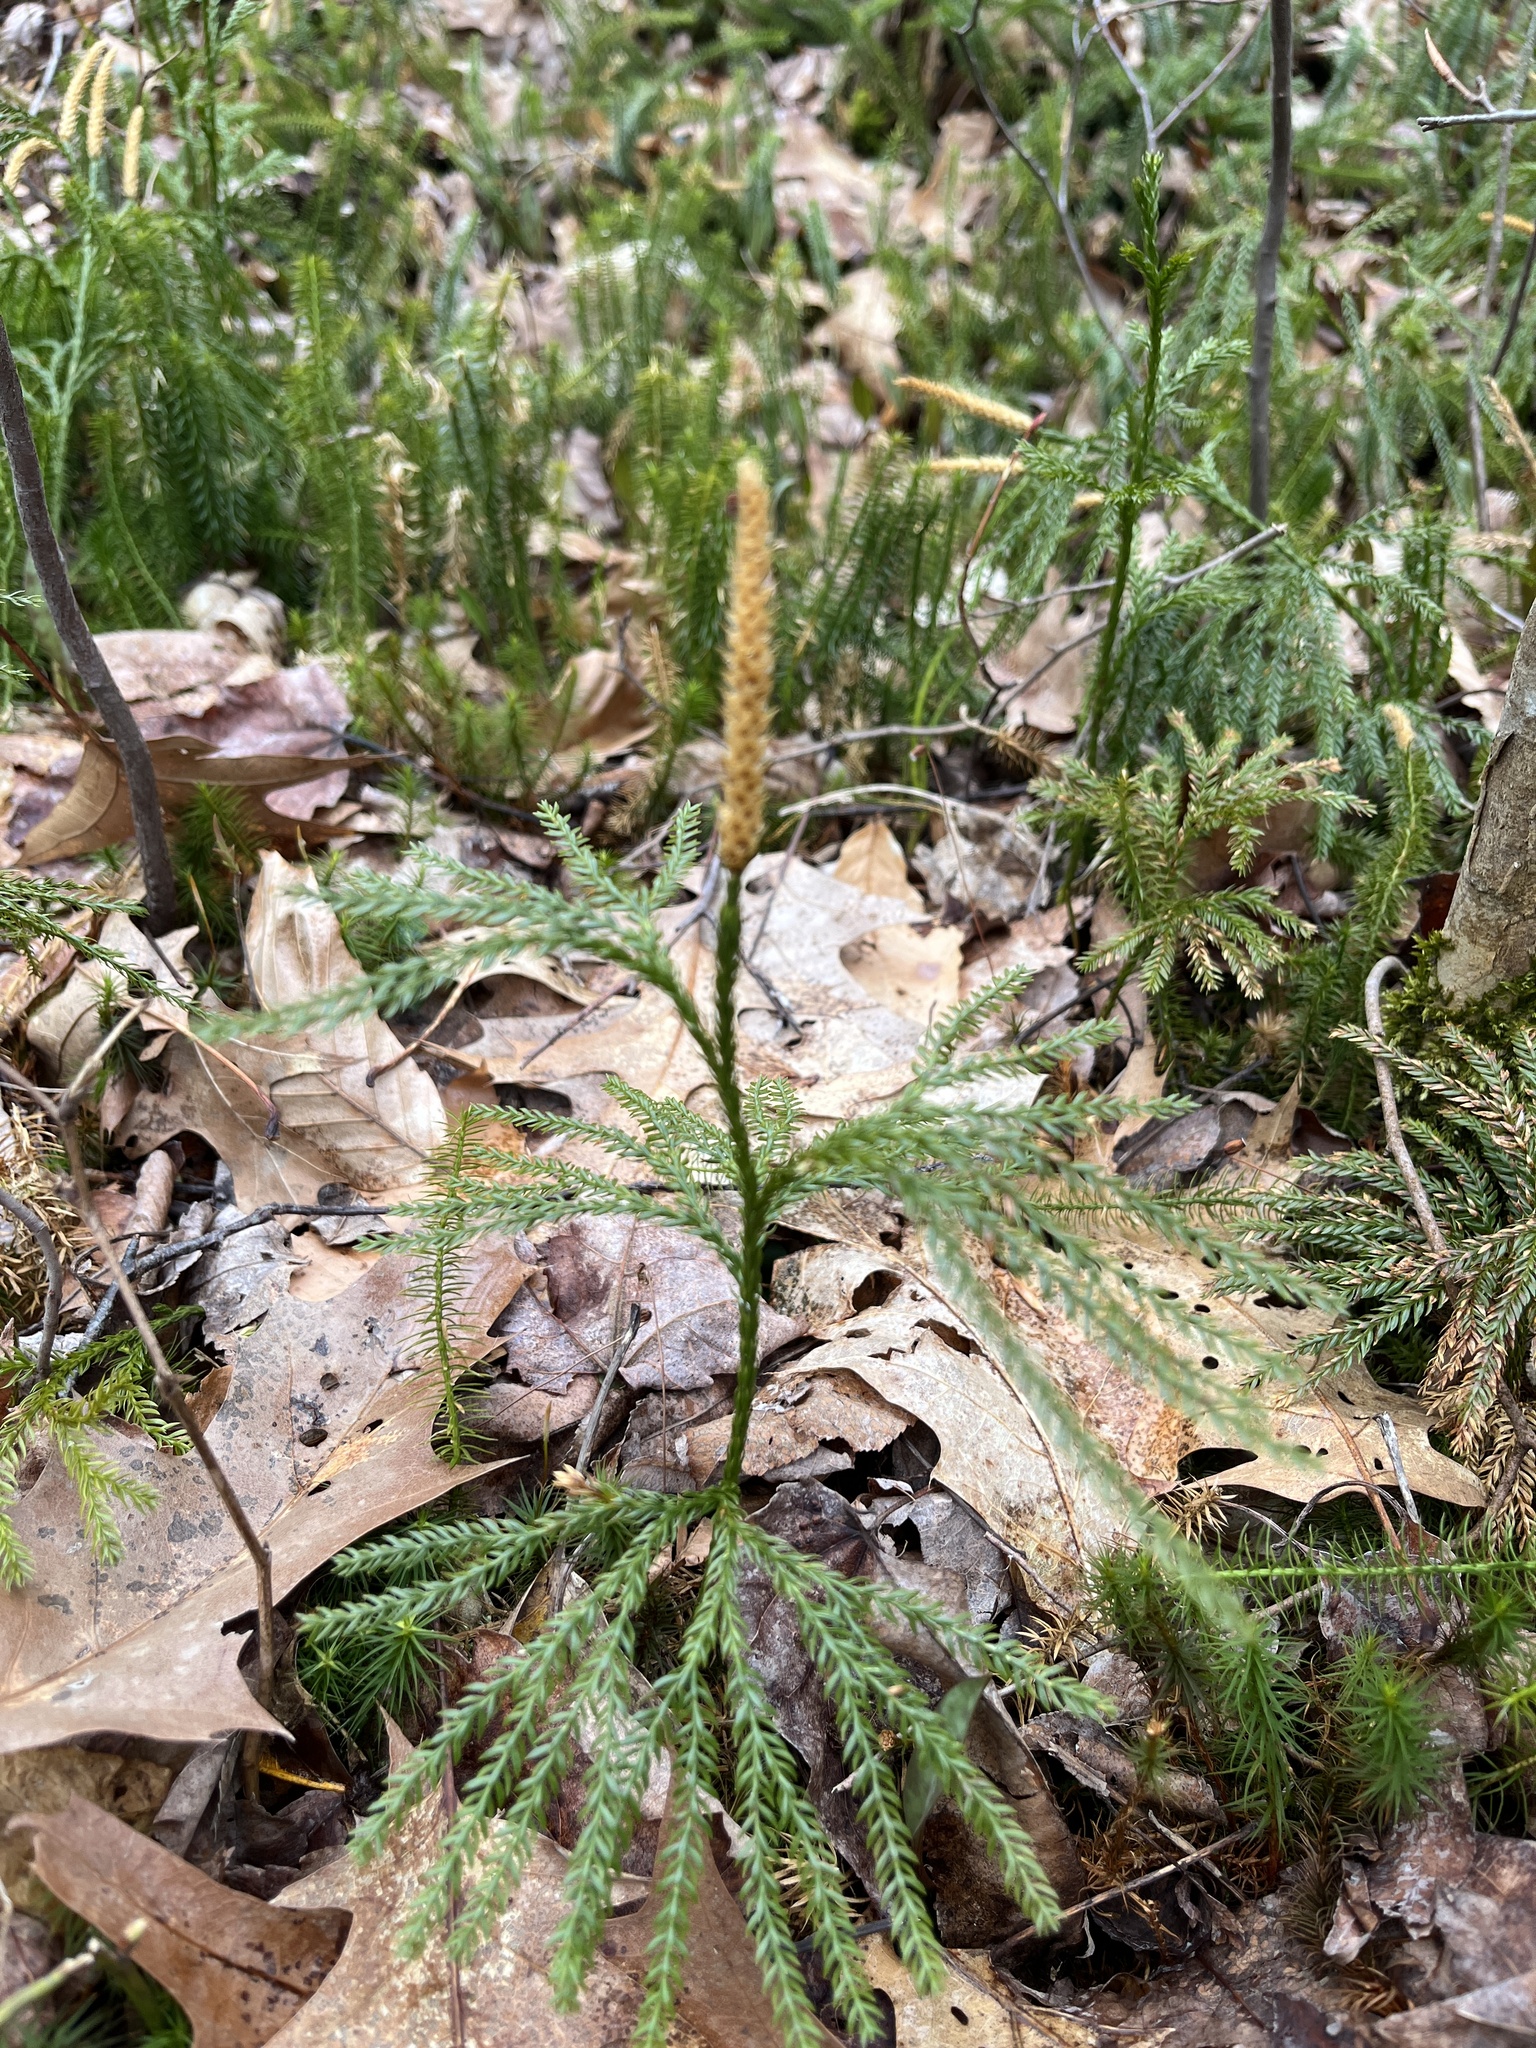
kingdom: Plantae
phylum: Tracheophyta
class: Lycopodiopsida
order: Lycopodiales
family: Lycopodiaceae
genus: Dendrolycopodium
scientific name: Dendrolycopodium obscurum
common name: Common ground-pine
